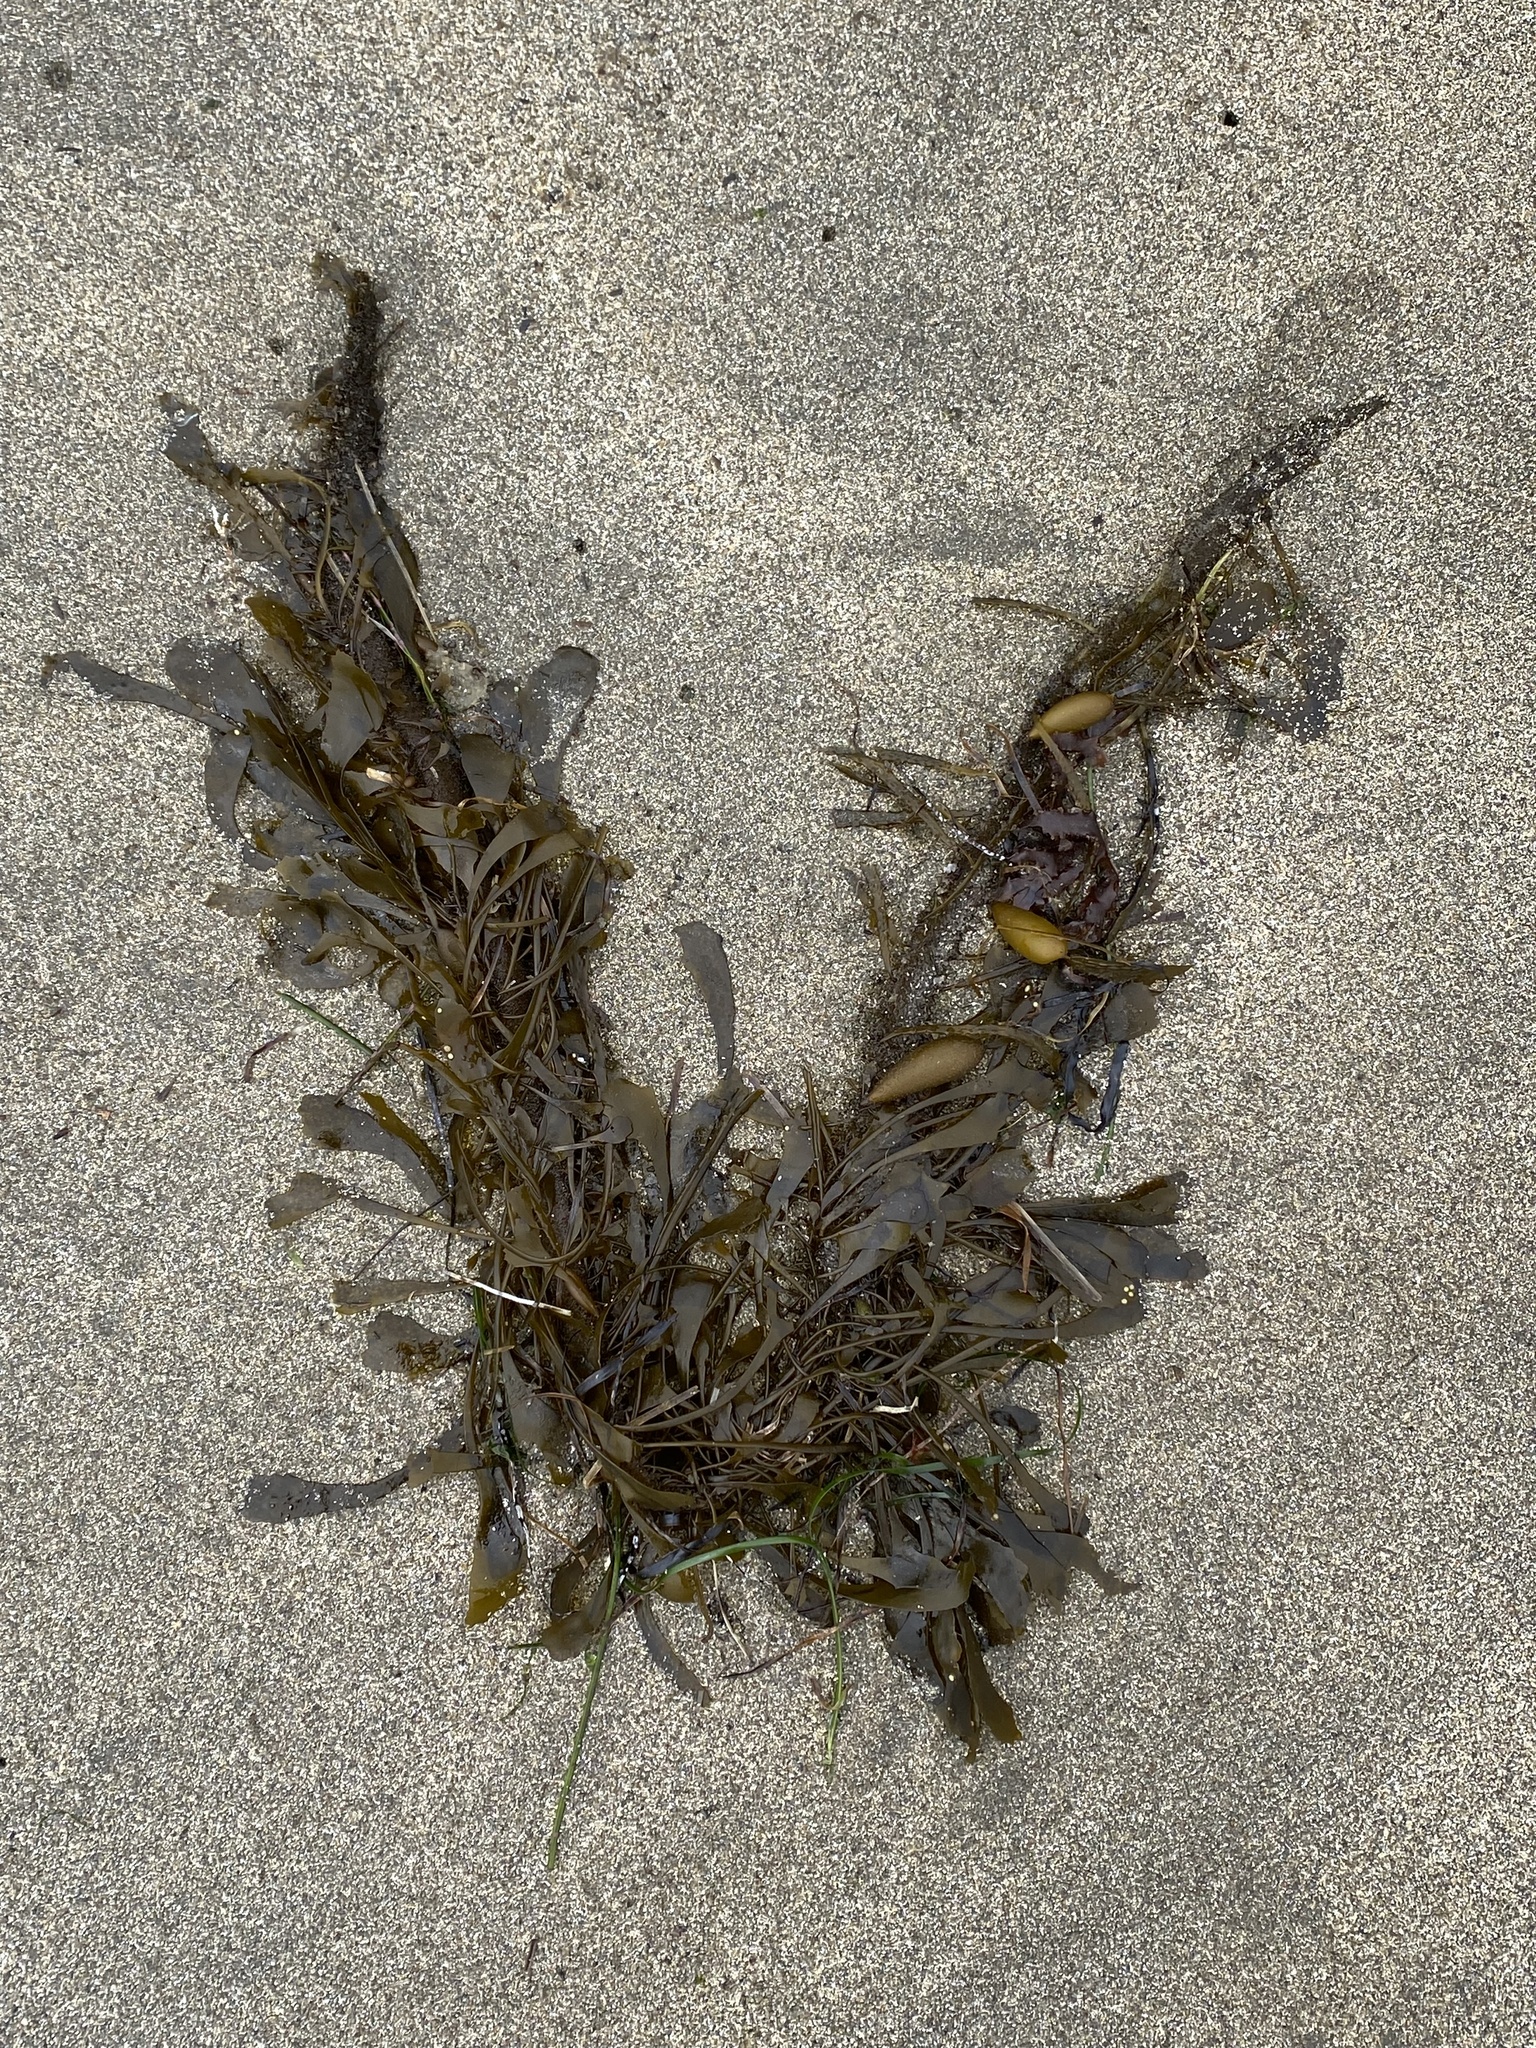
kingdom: Chromista
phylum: Ochrophyta
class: Phaeophyceae
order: Laminariales
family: Lessoniaceae
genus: Egregia
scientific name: Egregia menziesii
